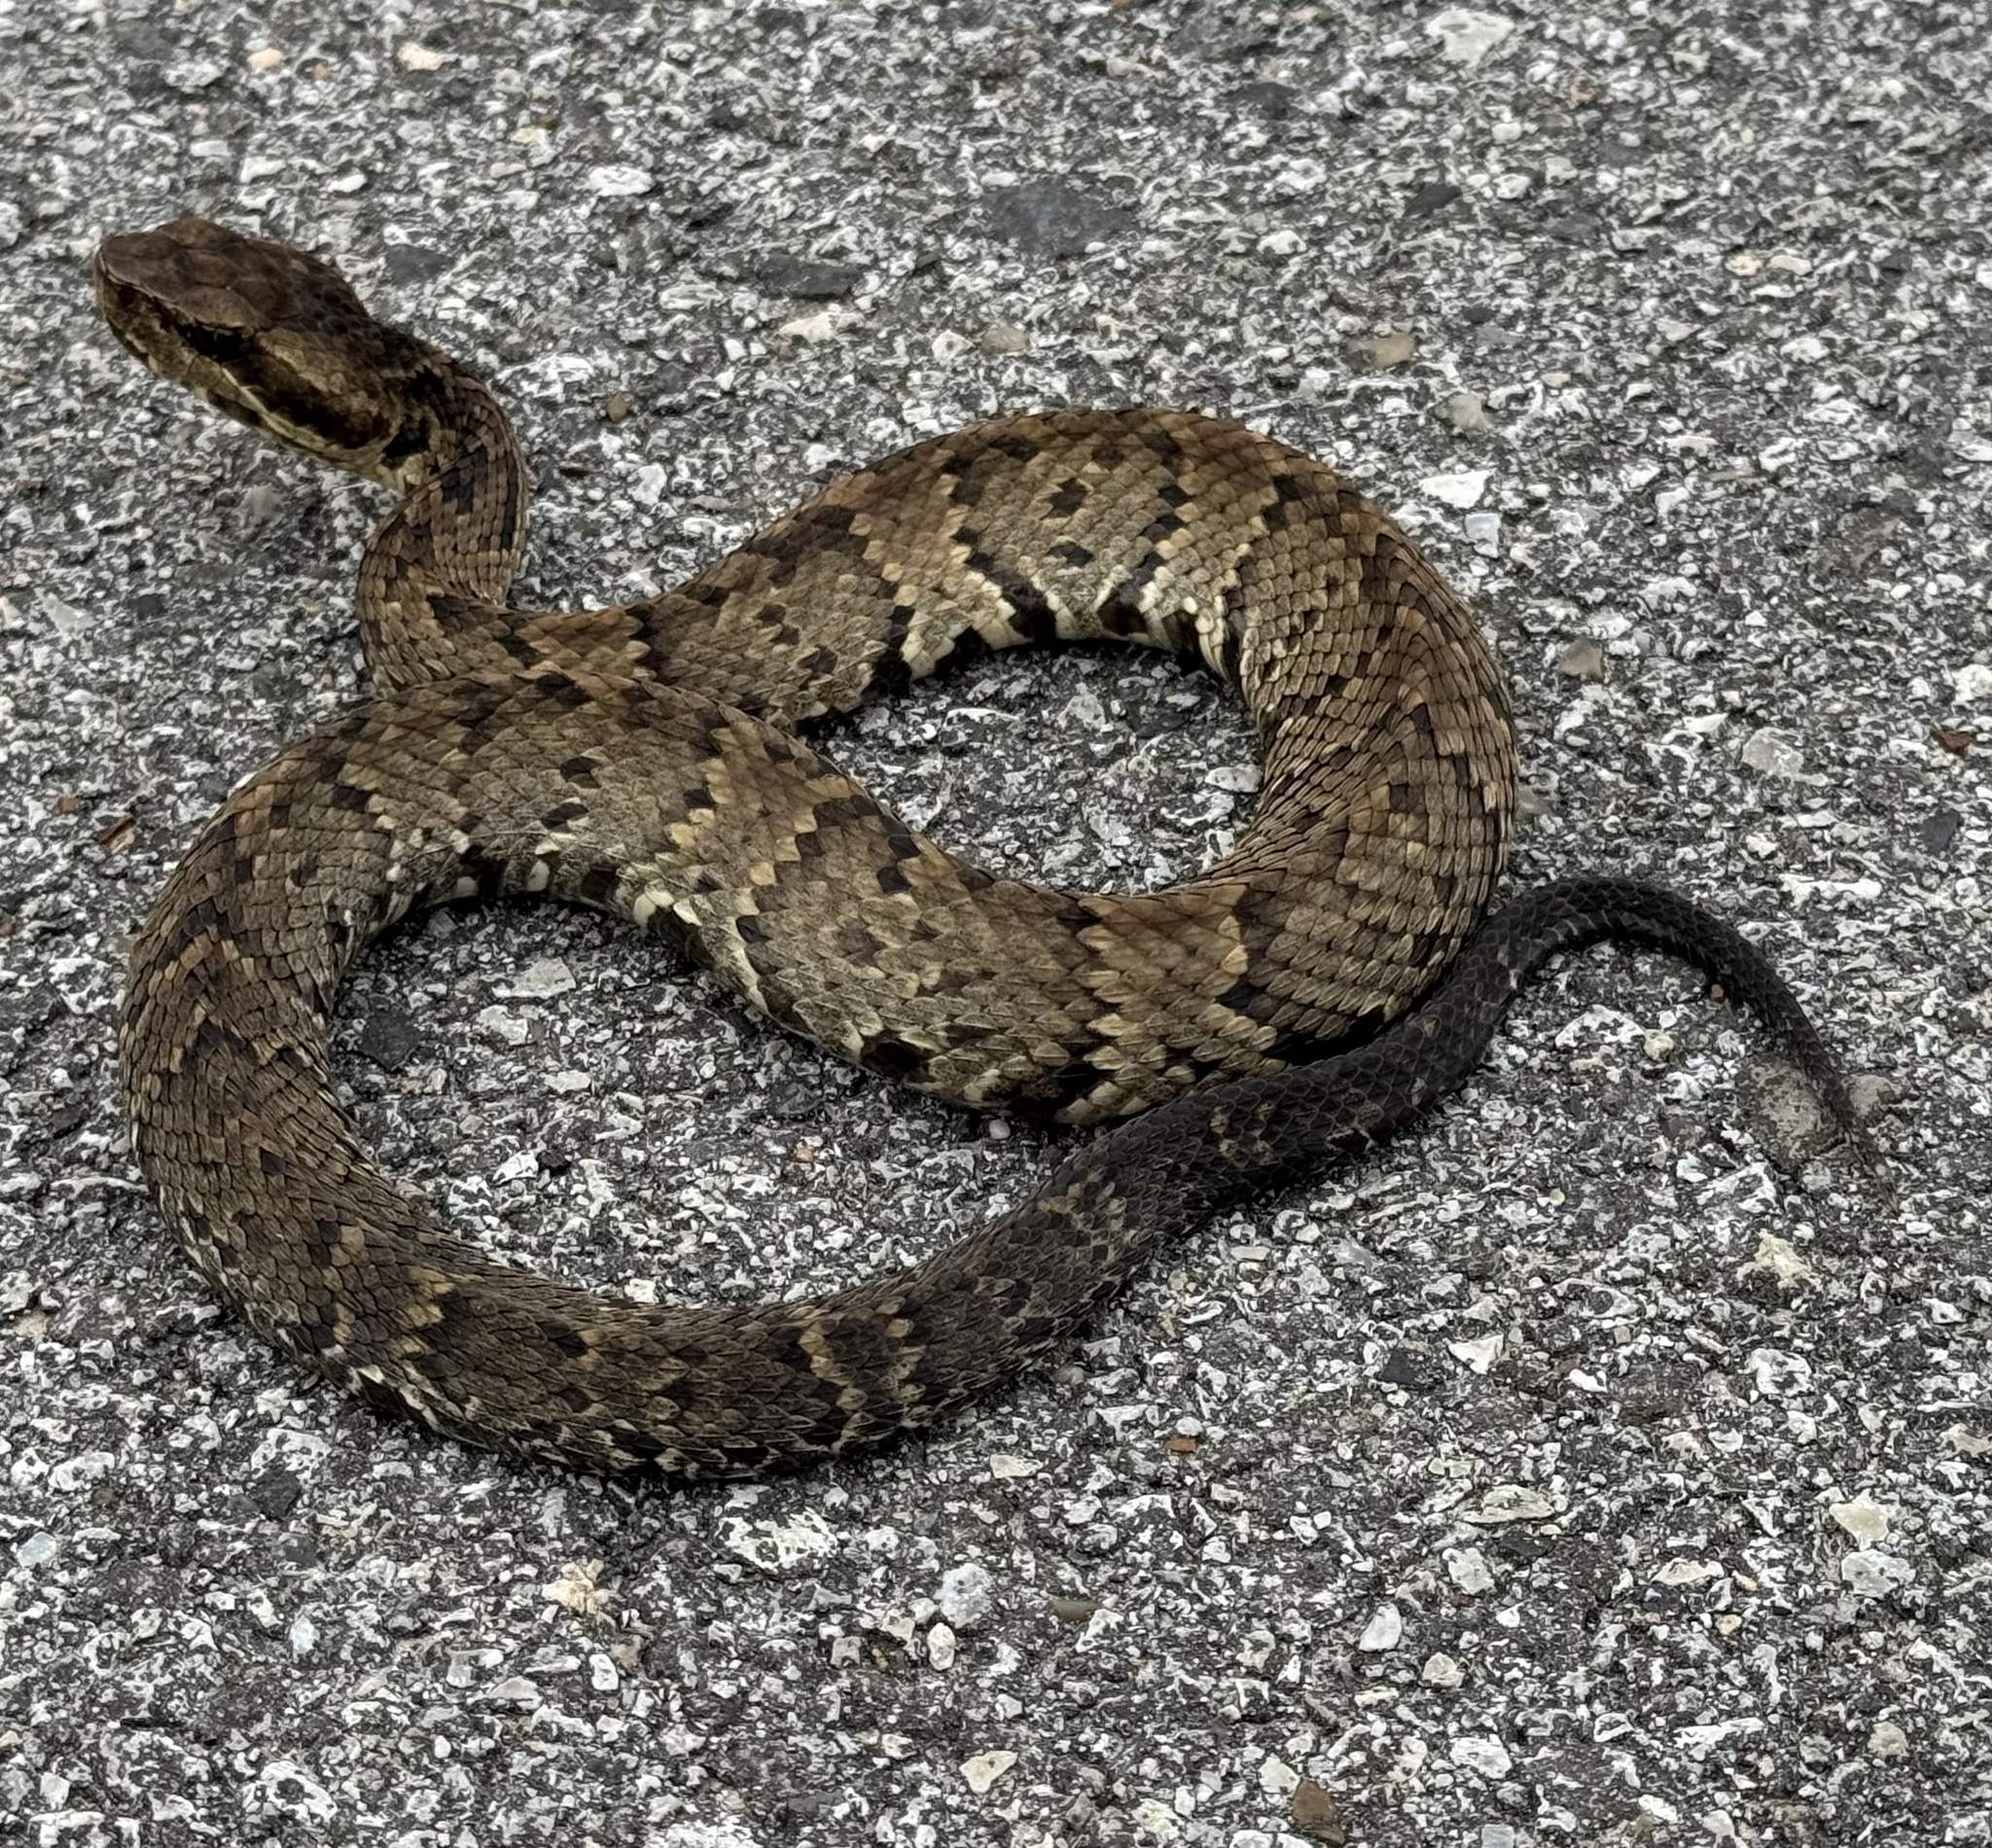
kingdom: Animalia
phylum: Chordata
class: Squamata
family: Viperidae
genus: Agkistrodon
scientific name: Agkistrodon piscivorus
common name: Cottonmouth
